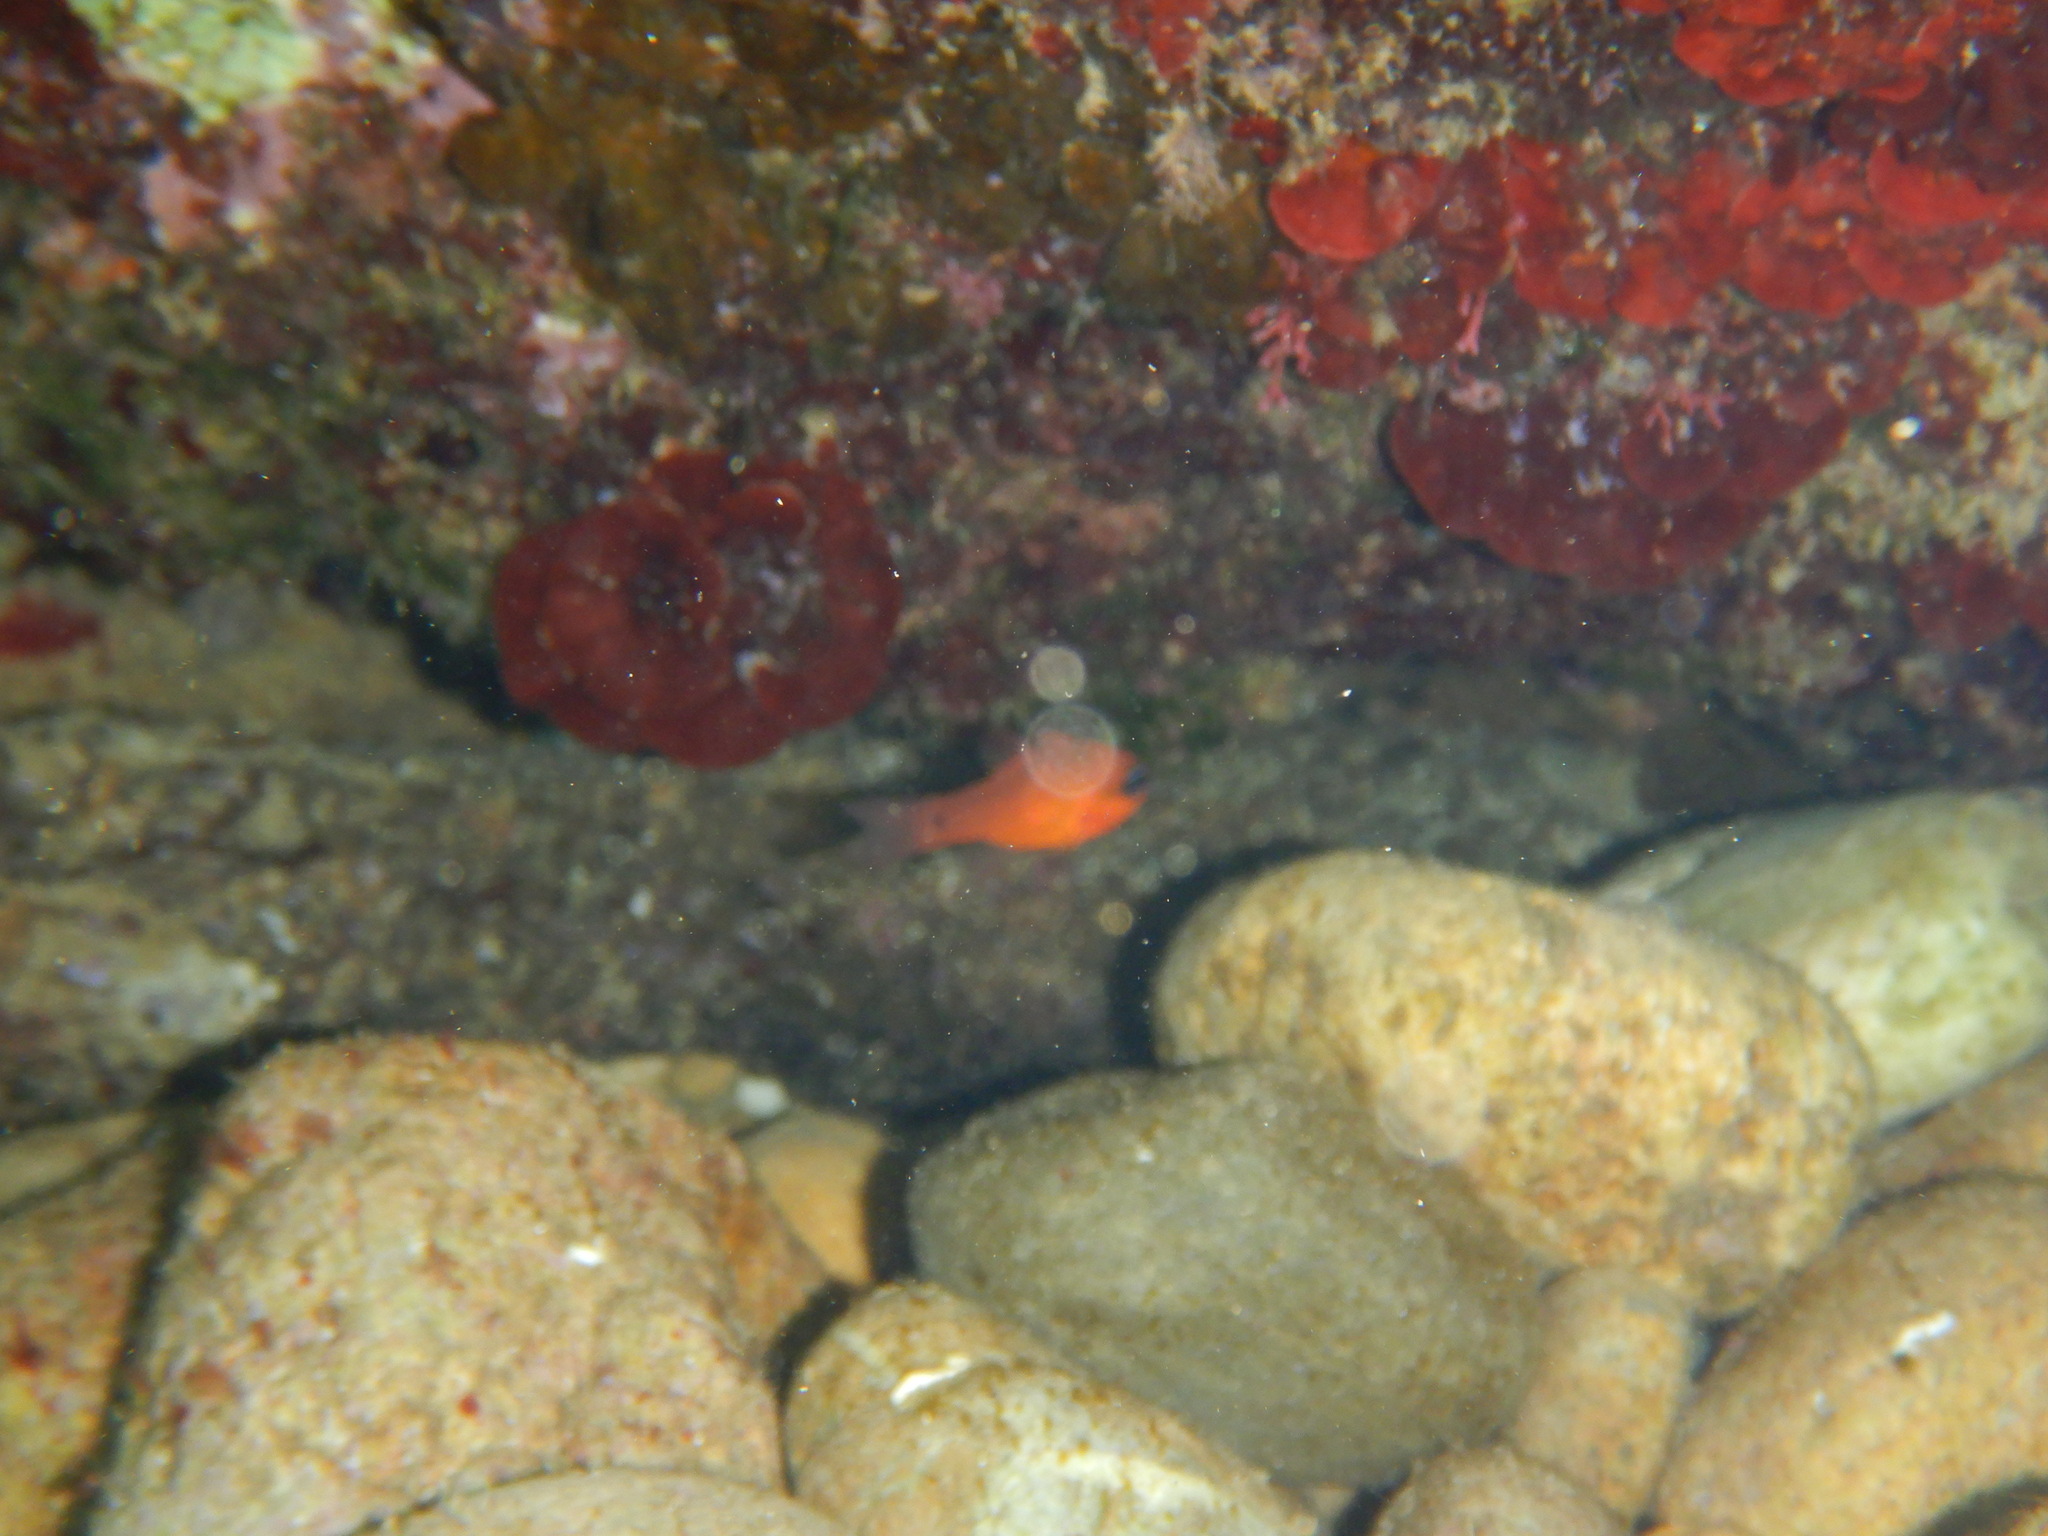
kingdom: Animalia
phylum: Chordata
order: Perciformes
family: Apogonidae
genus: Apogon
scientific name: Apogon imberbis
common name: Cardinal fish
